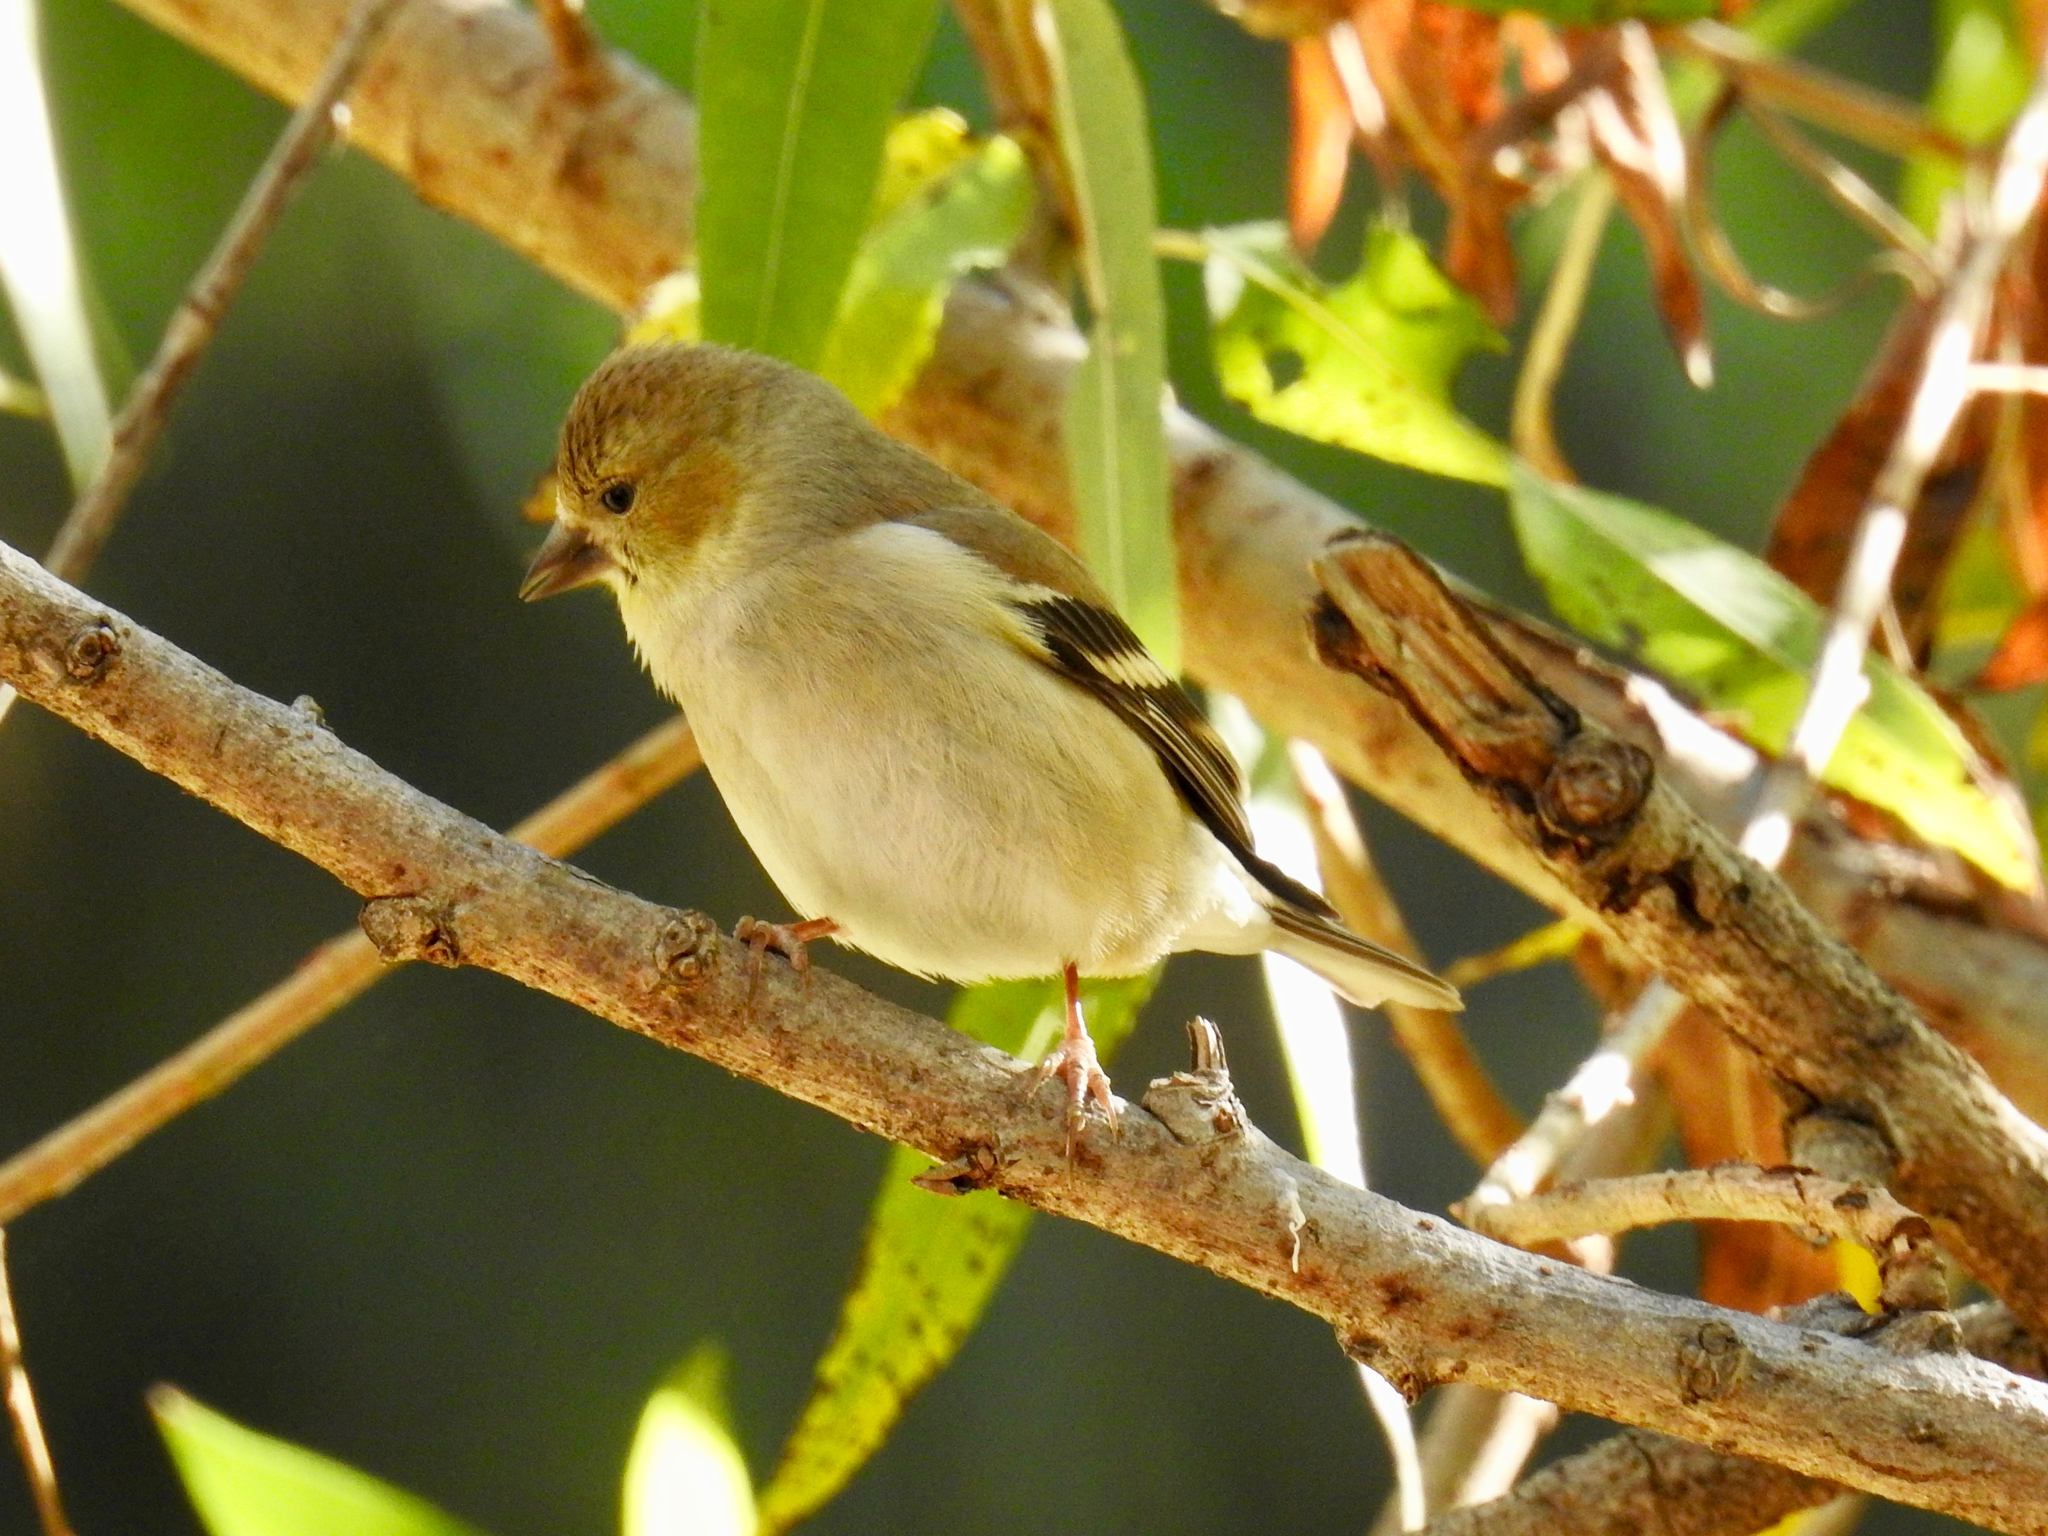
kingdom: Animalia
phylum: Chordata
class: Aves
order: Passeriformes
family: Fringillidae
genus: Spinus
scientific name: Spinus tristis
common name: American goldfinch
